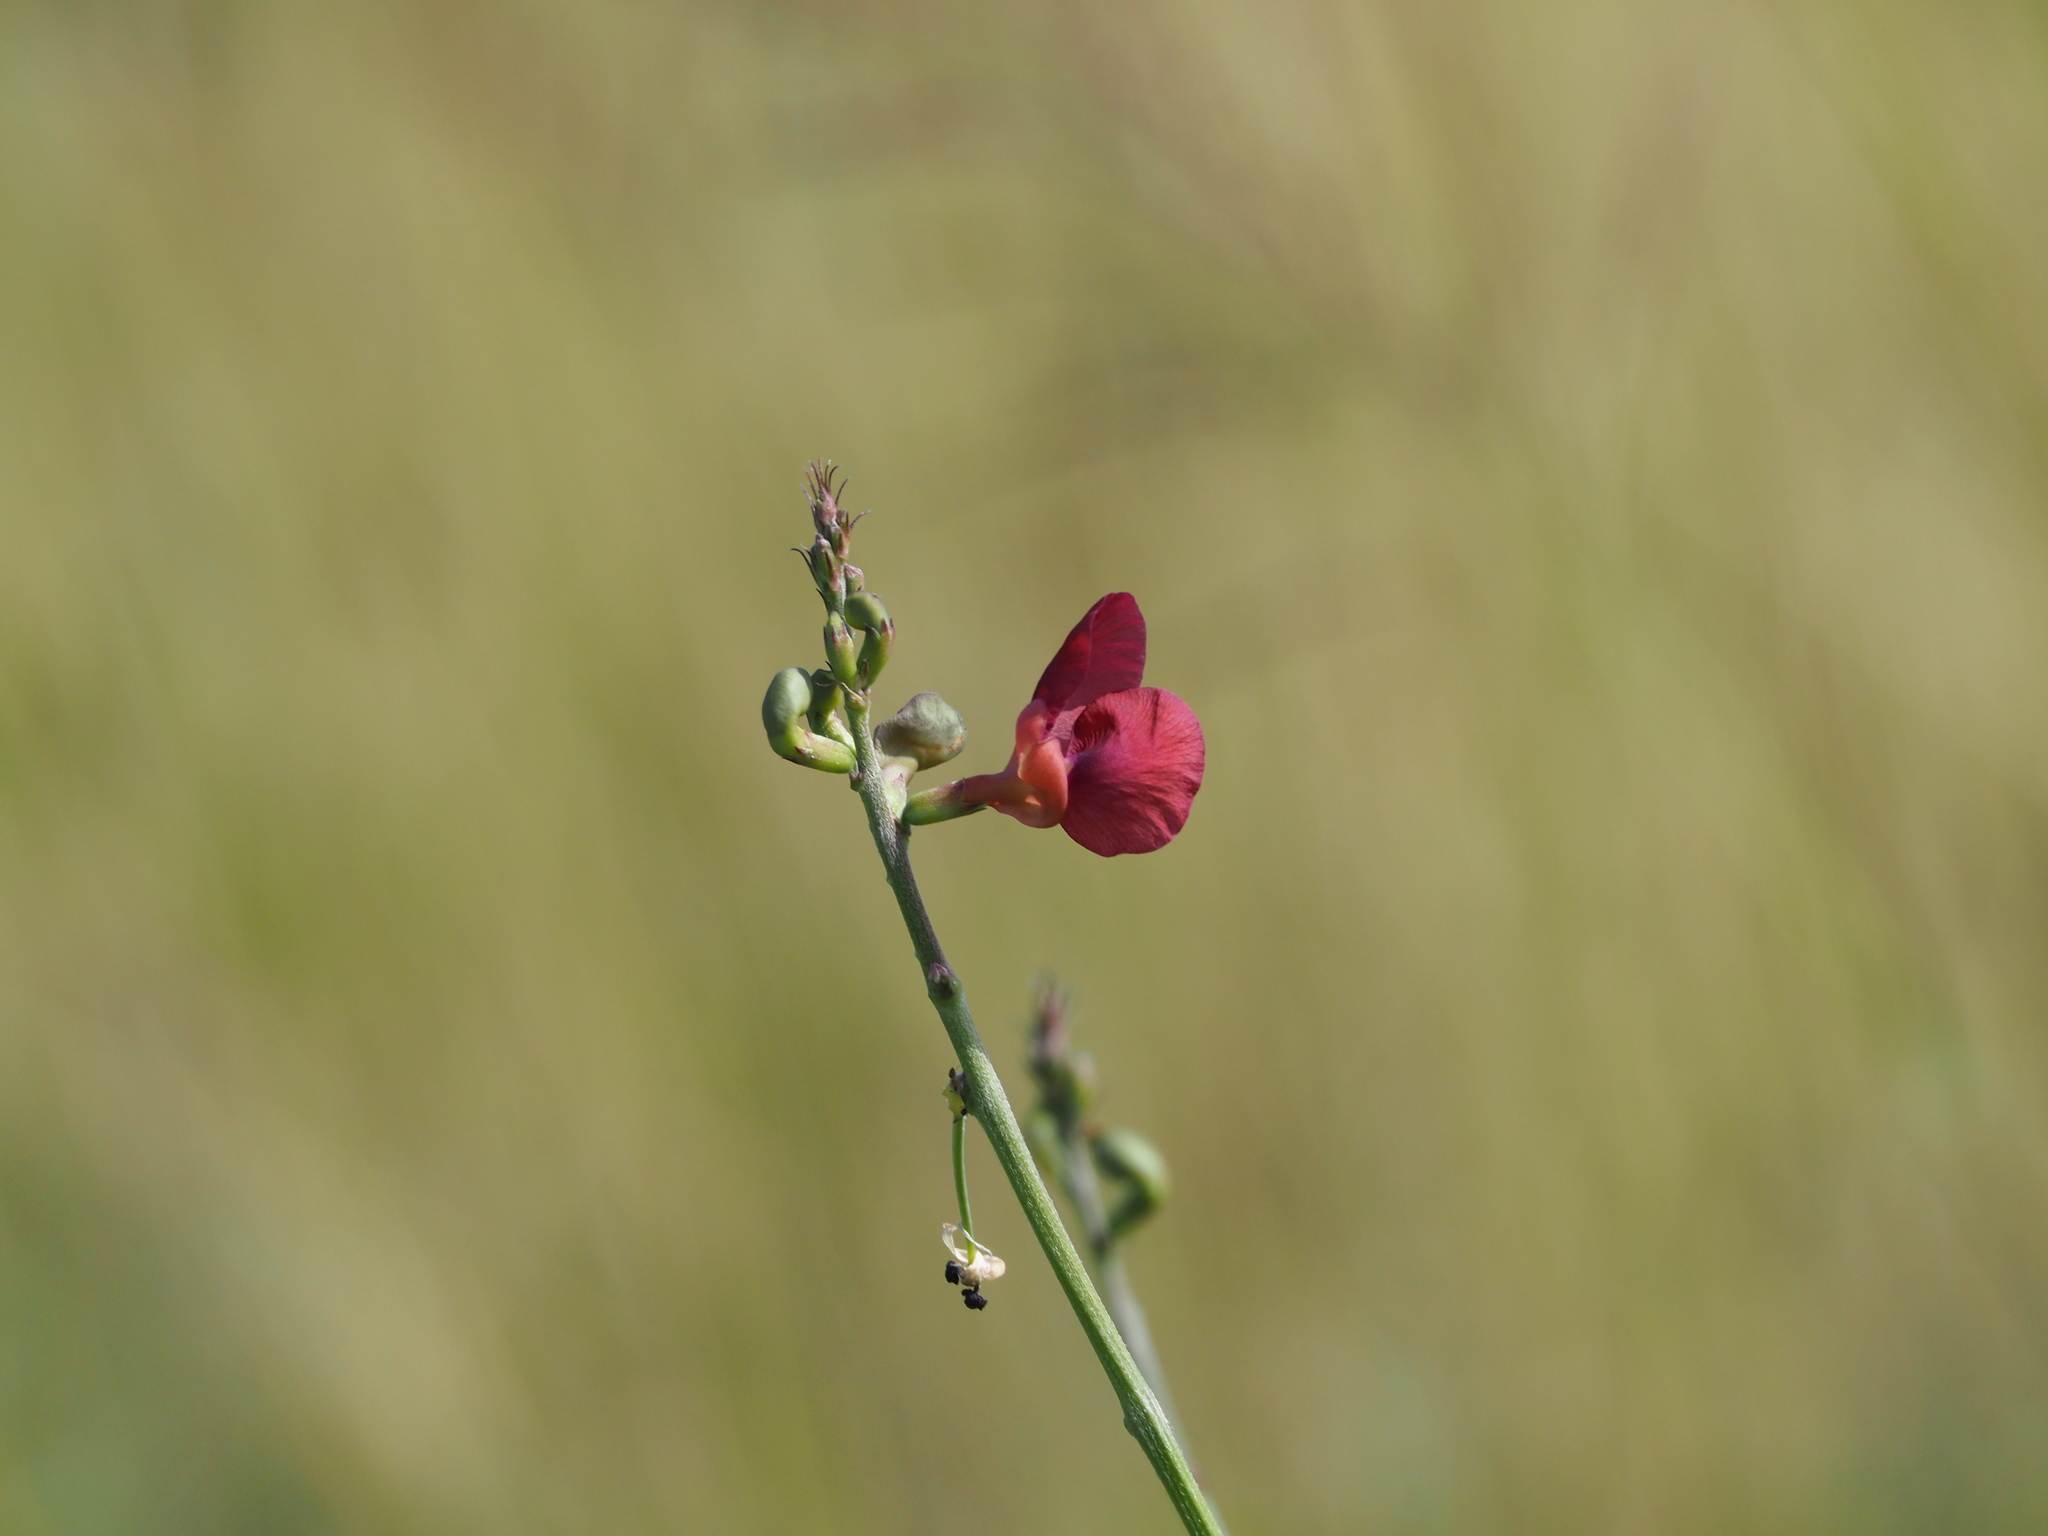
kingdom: Plantae
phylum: Tracheophyta
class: Magnoliopsida
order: Fabales
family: Fabaceae
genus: Macroptilium
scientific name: Macroptilium lathyroides
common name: Wild bushbean
